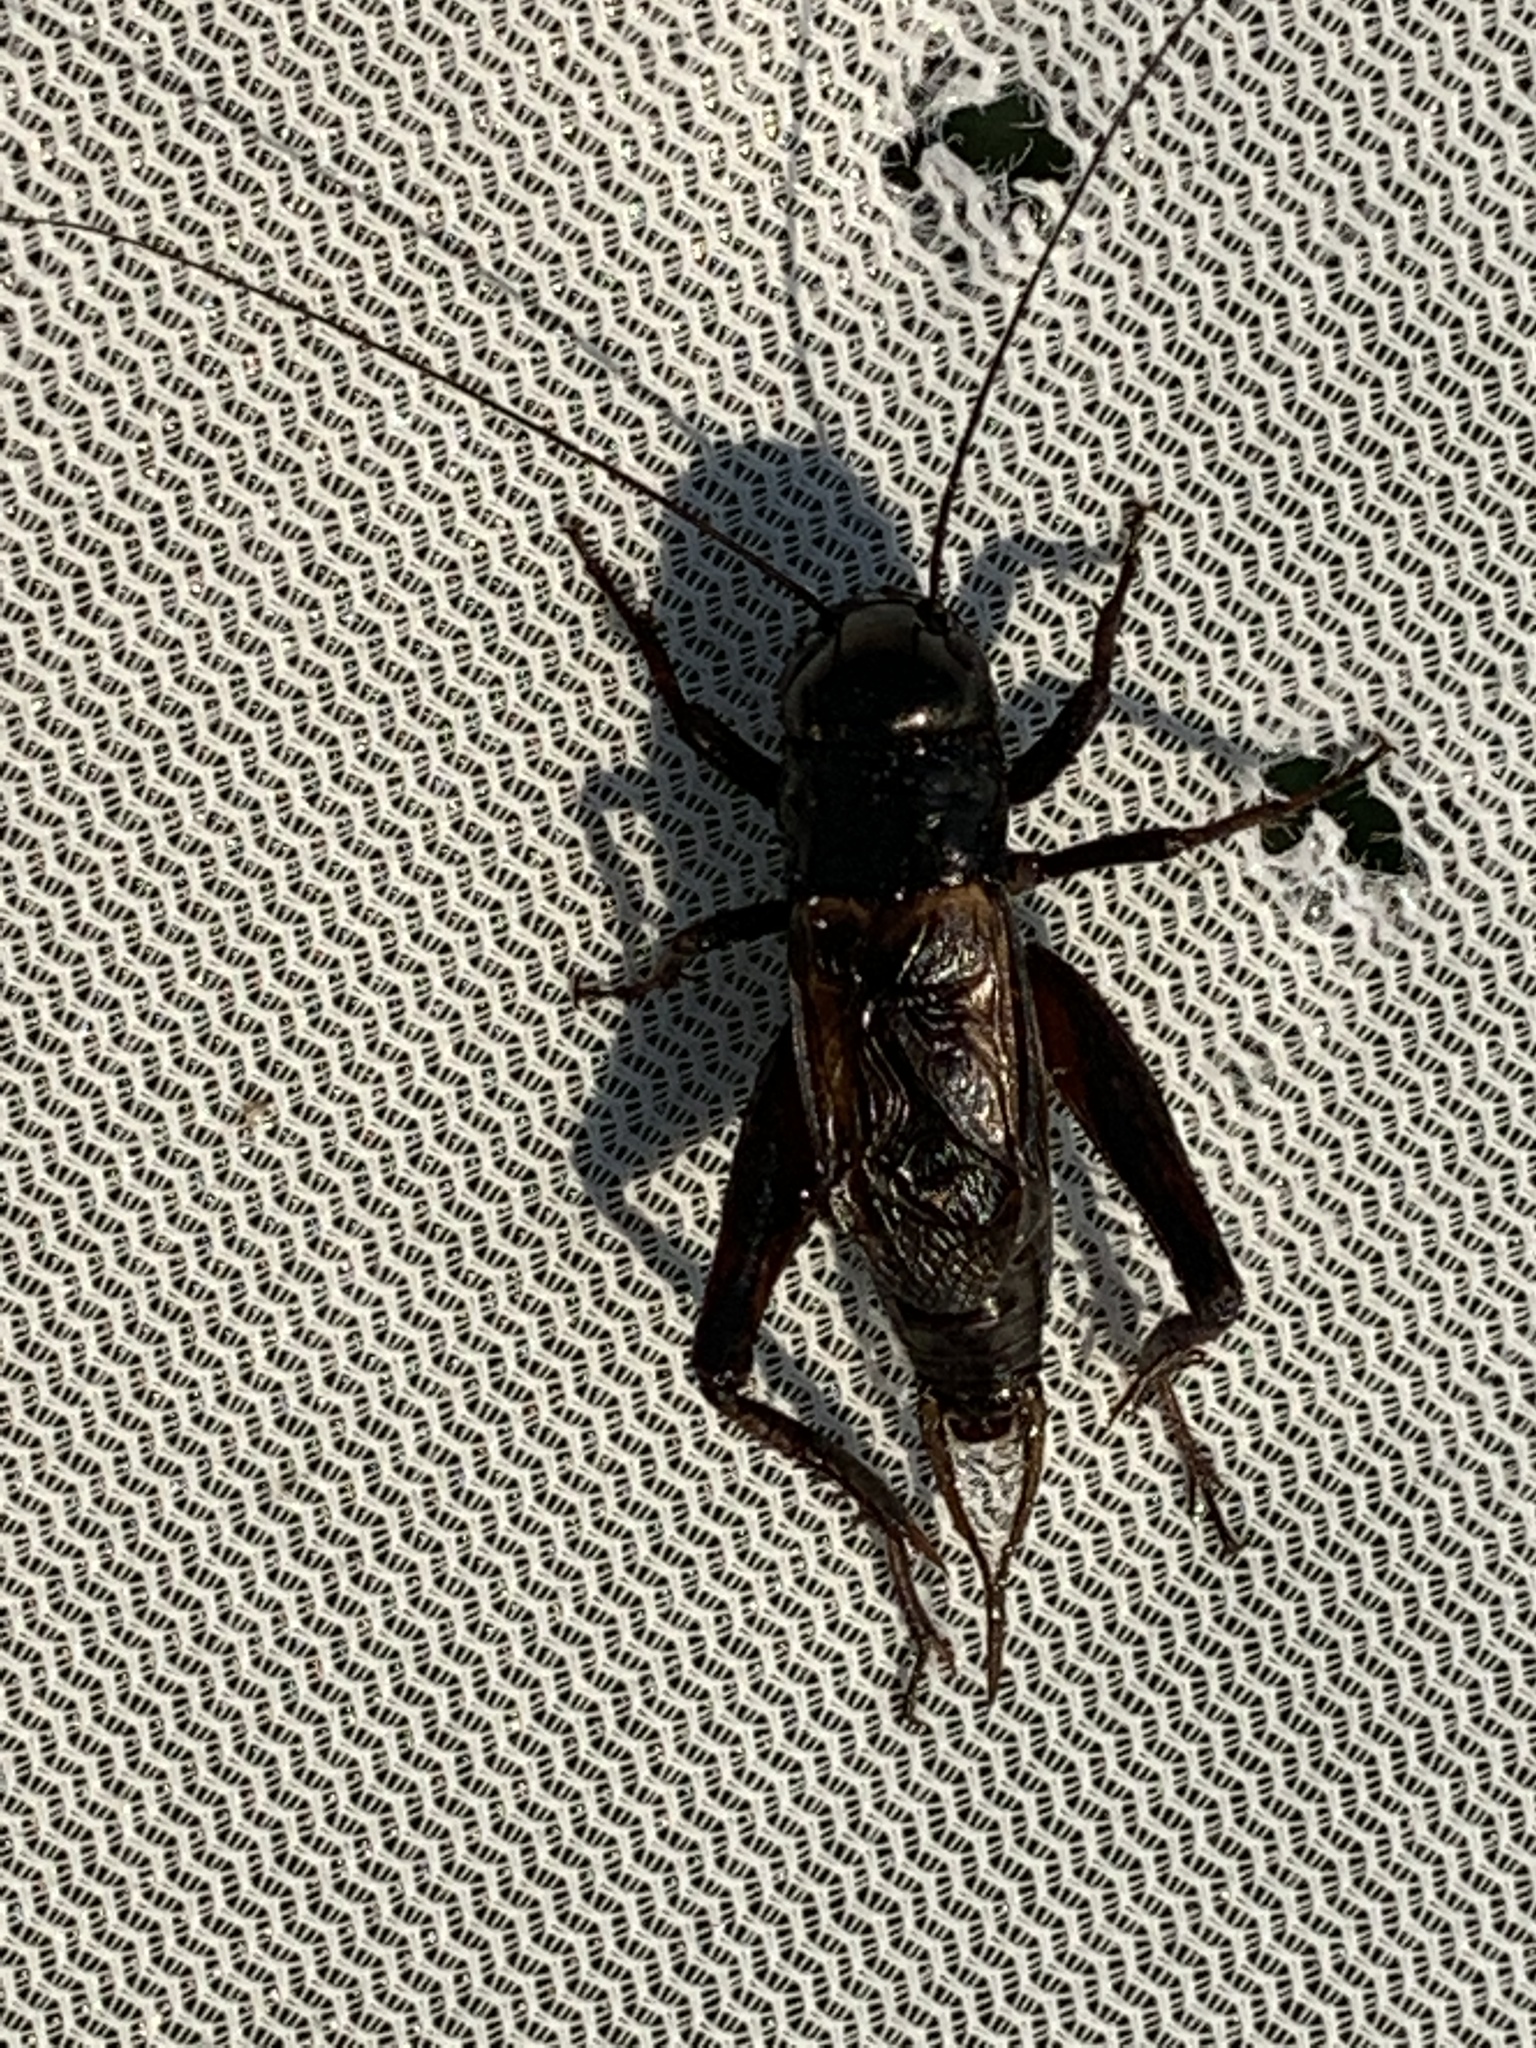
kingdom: Animalia
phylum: Arthropoda
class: Insecta
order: Orthoptera
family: Gryllidae
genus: Gryllus
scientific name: Gryllus pennsylvanicus
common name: Fall field cricket
